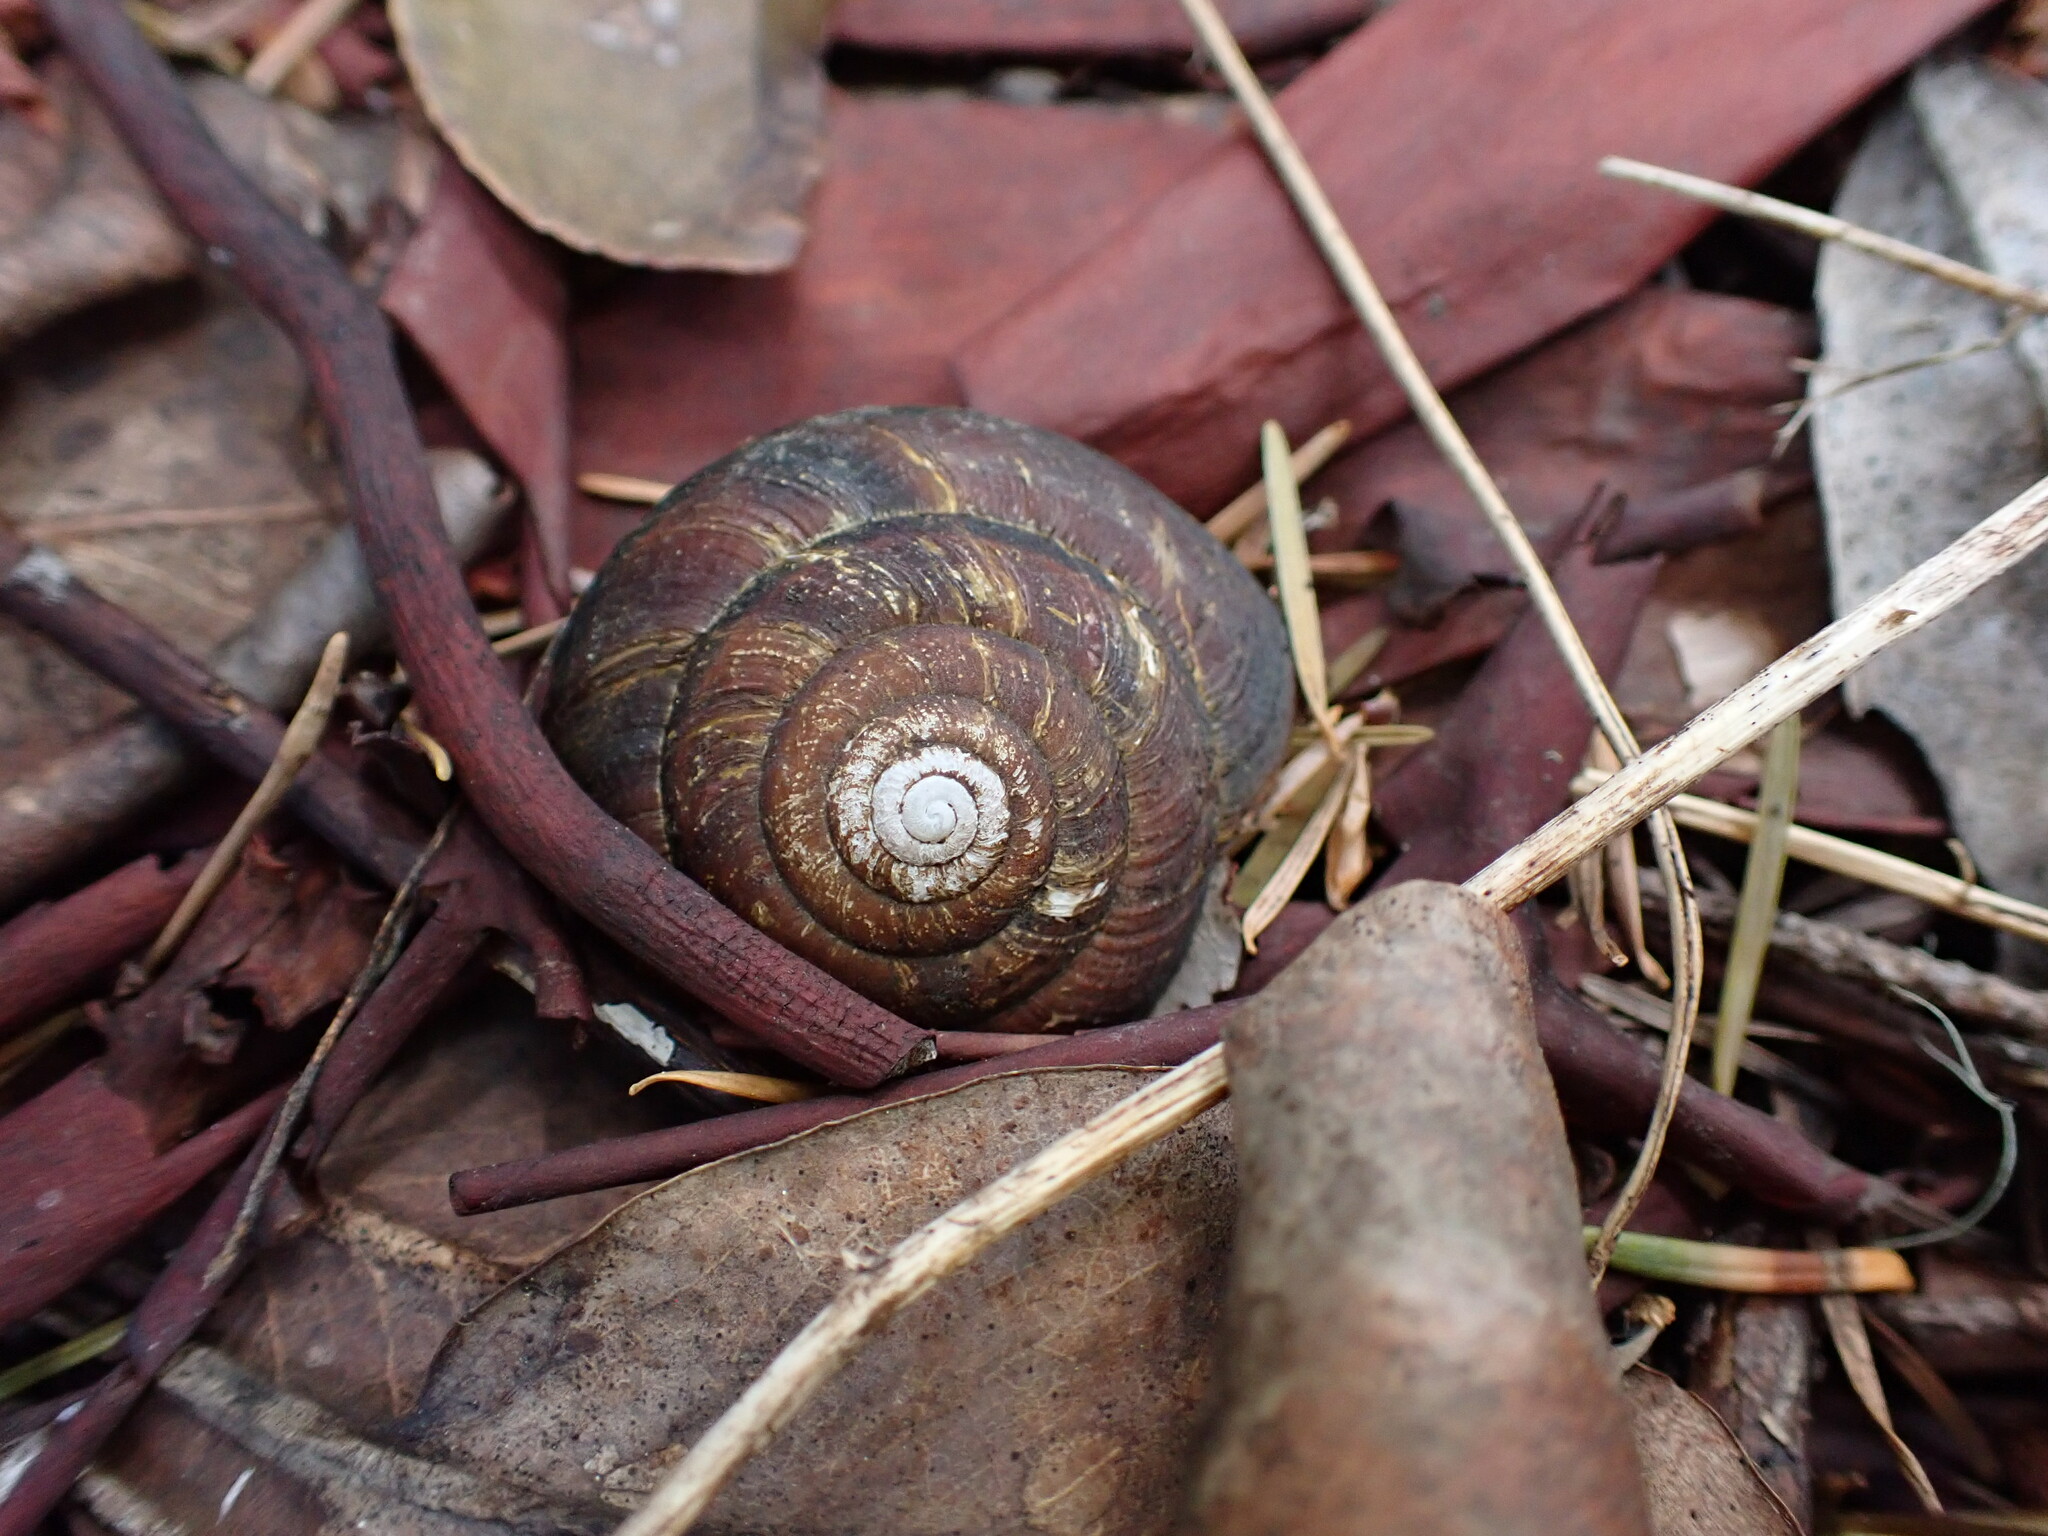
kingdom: Animalia
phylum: Mollusca
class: Gastropoda
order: Stylommatophora
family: Xanthonychidae
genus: Monadenia
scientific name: Monadenia fidelis
